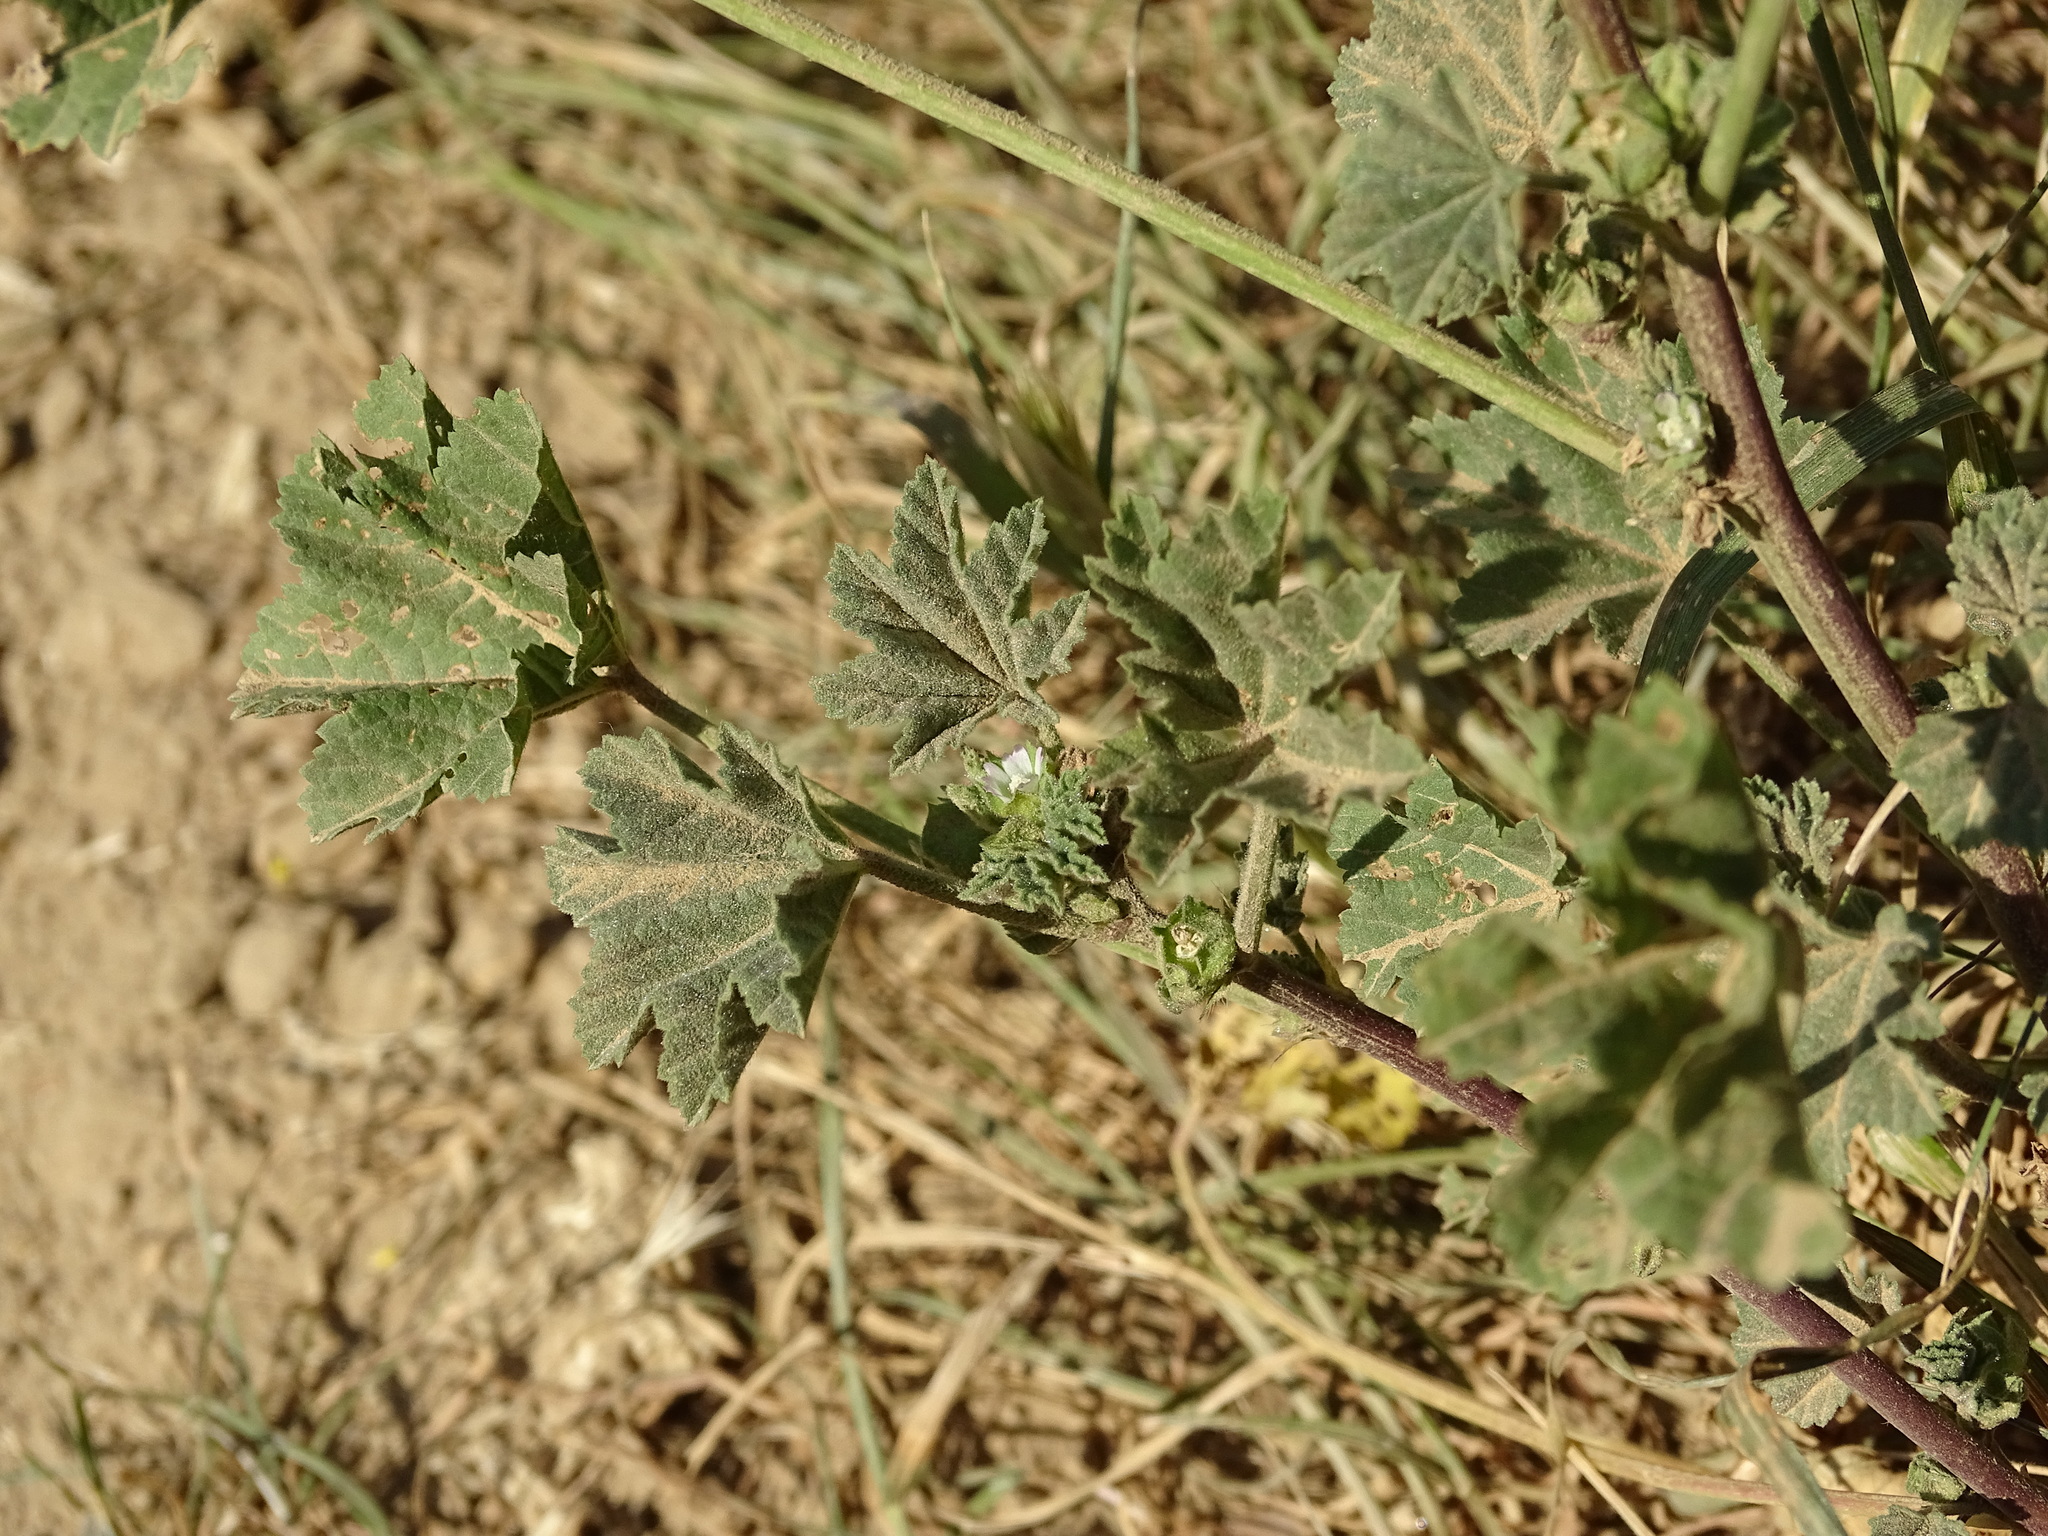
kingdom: Plantae
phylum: Tracheophyta
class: Magnoliopsida
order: Malvales
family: Malvaceae
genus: Malva
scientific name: Malva parviflora
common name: Least mallow
